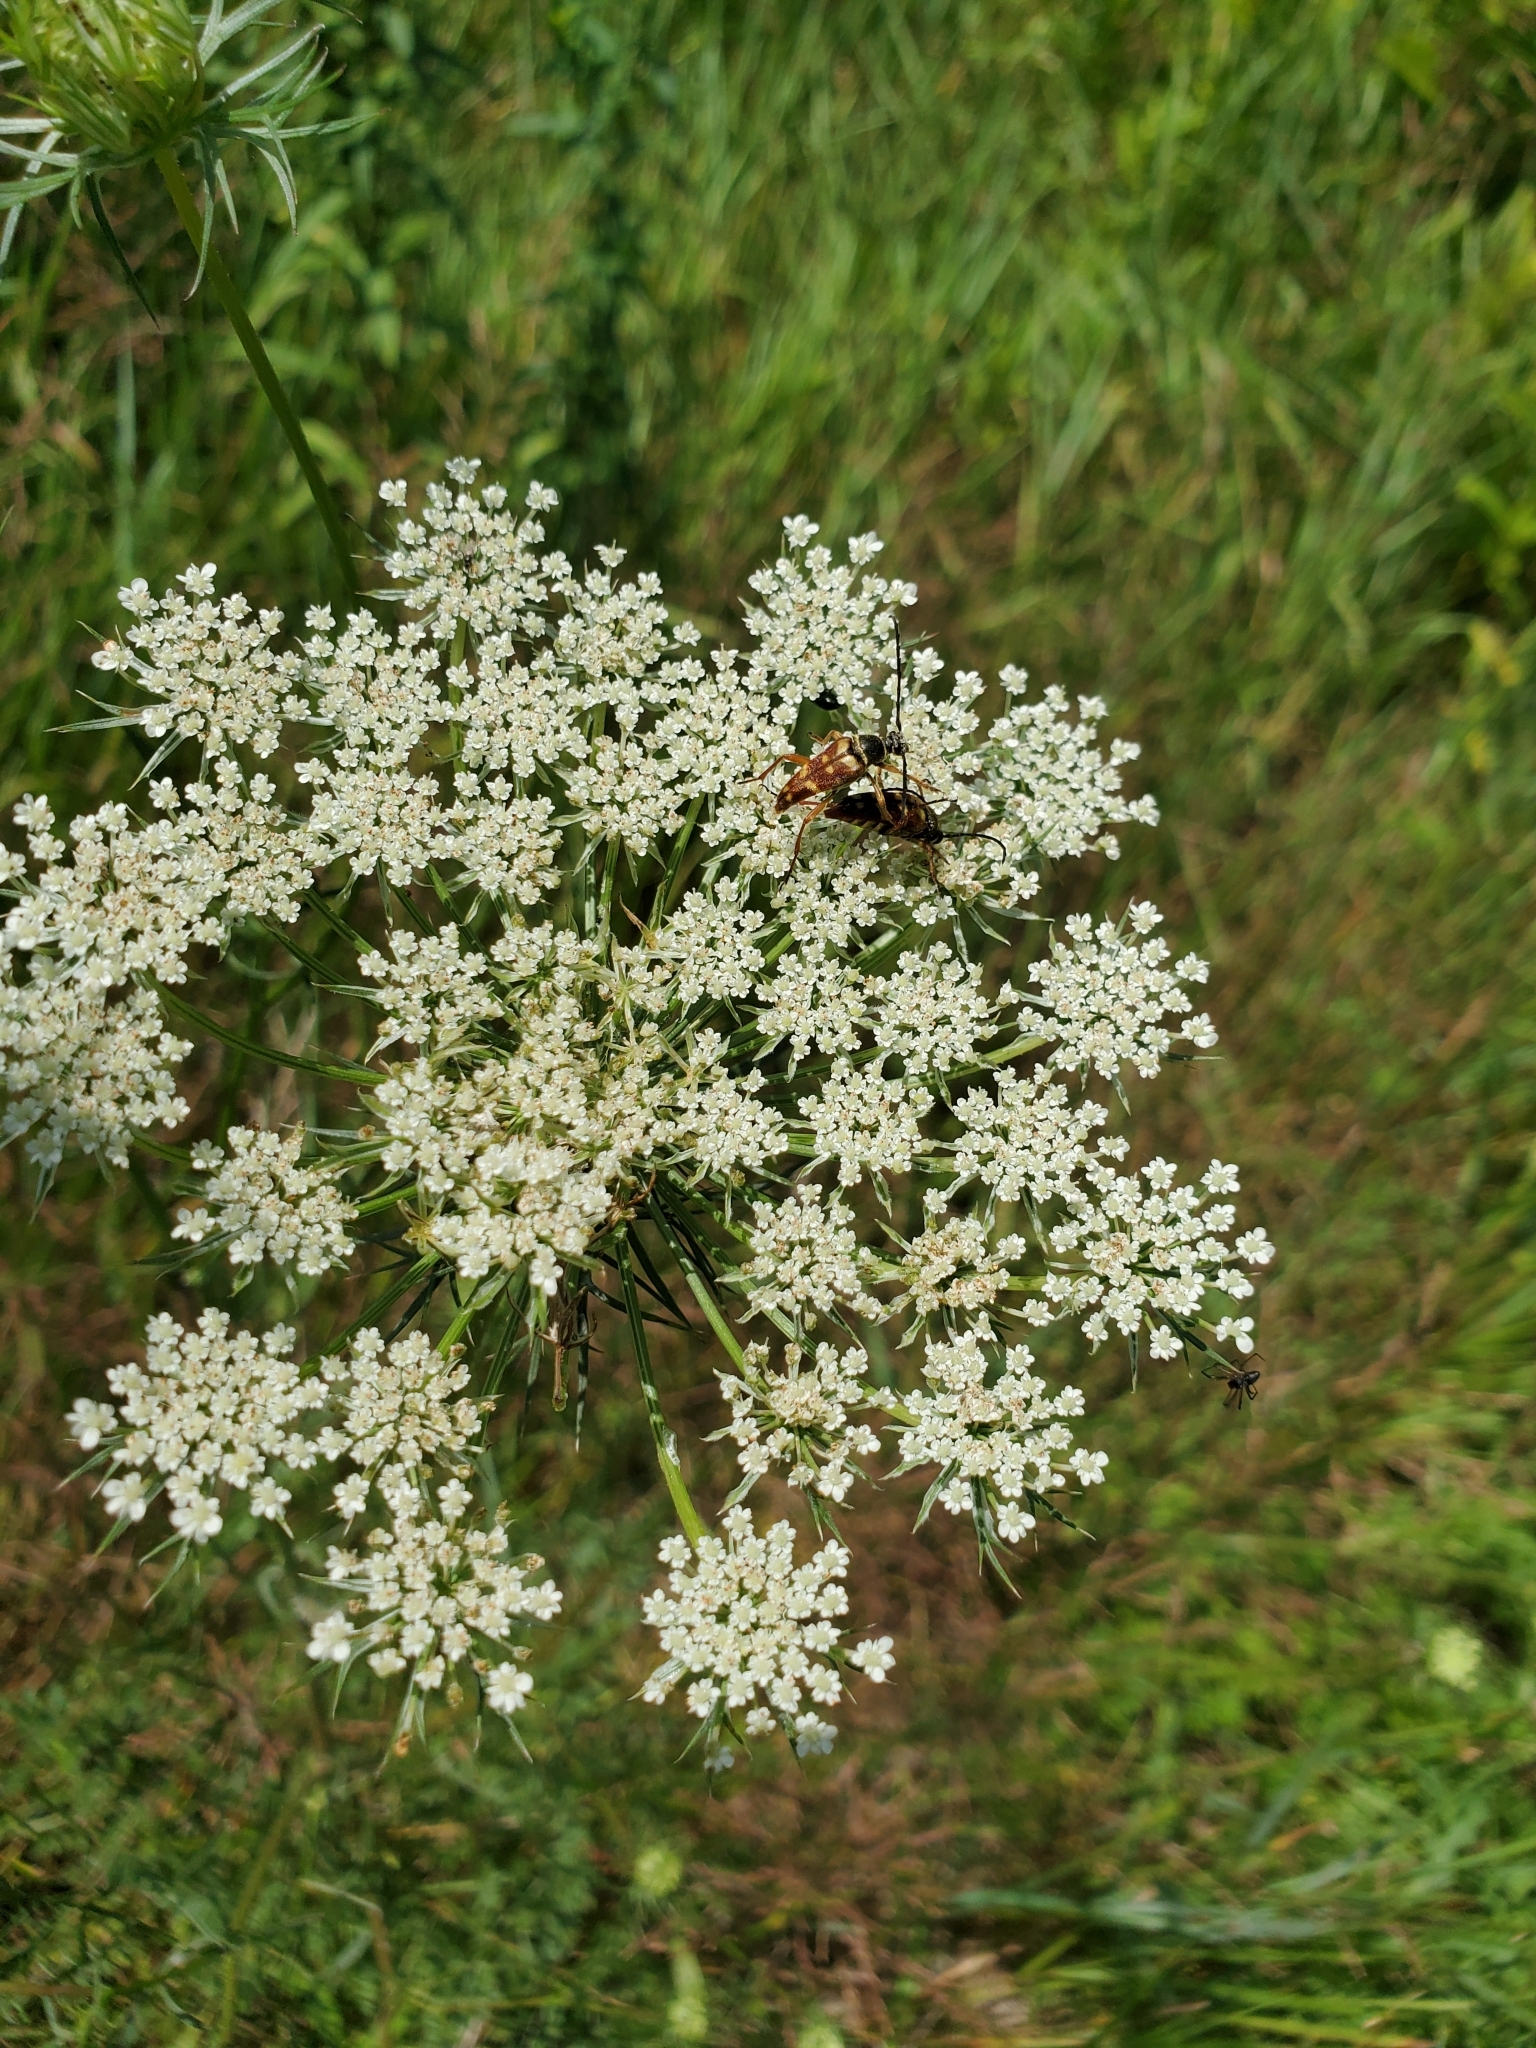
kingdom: Plantae
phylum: Tracheophyta
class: Magnoliopsida
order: Apiales
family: Apiaceae
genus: Daucus
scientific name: Daucus carota
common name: Wild carrot
